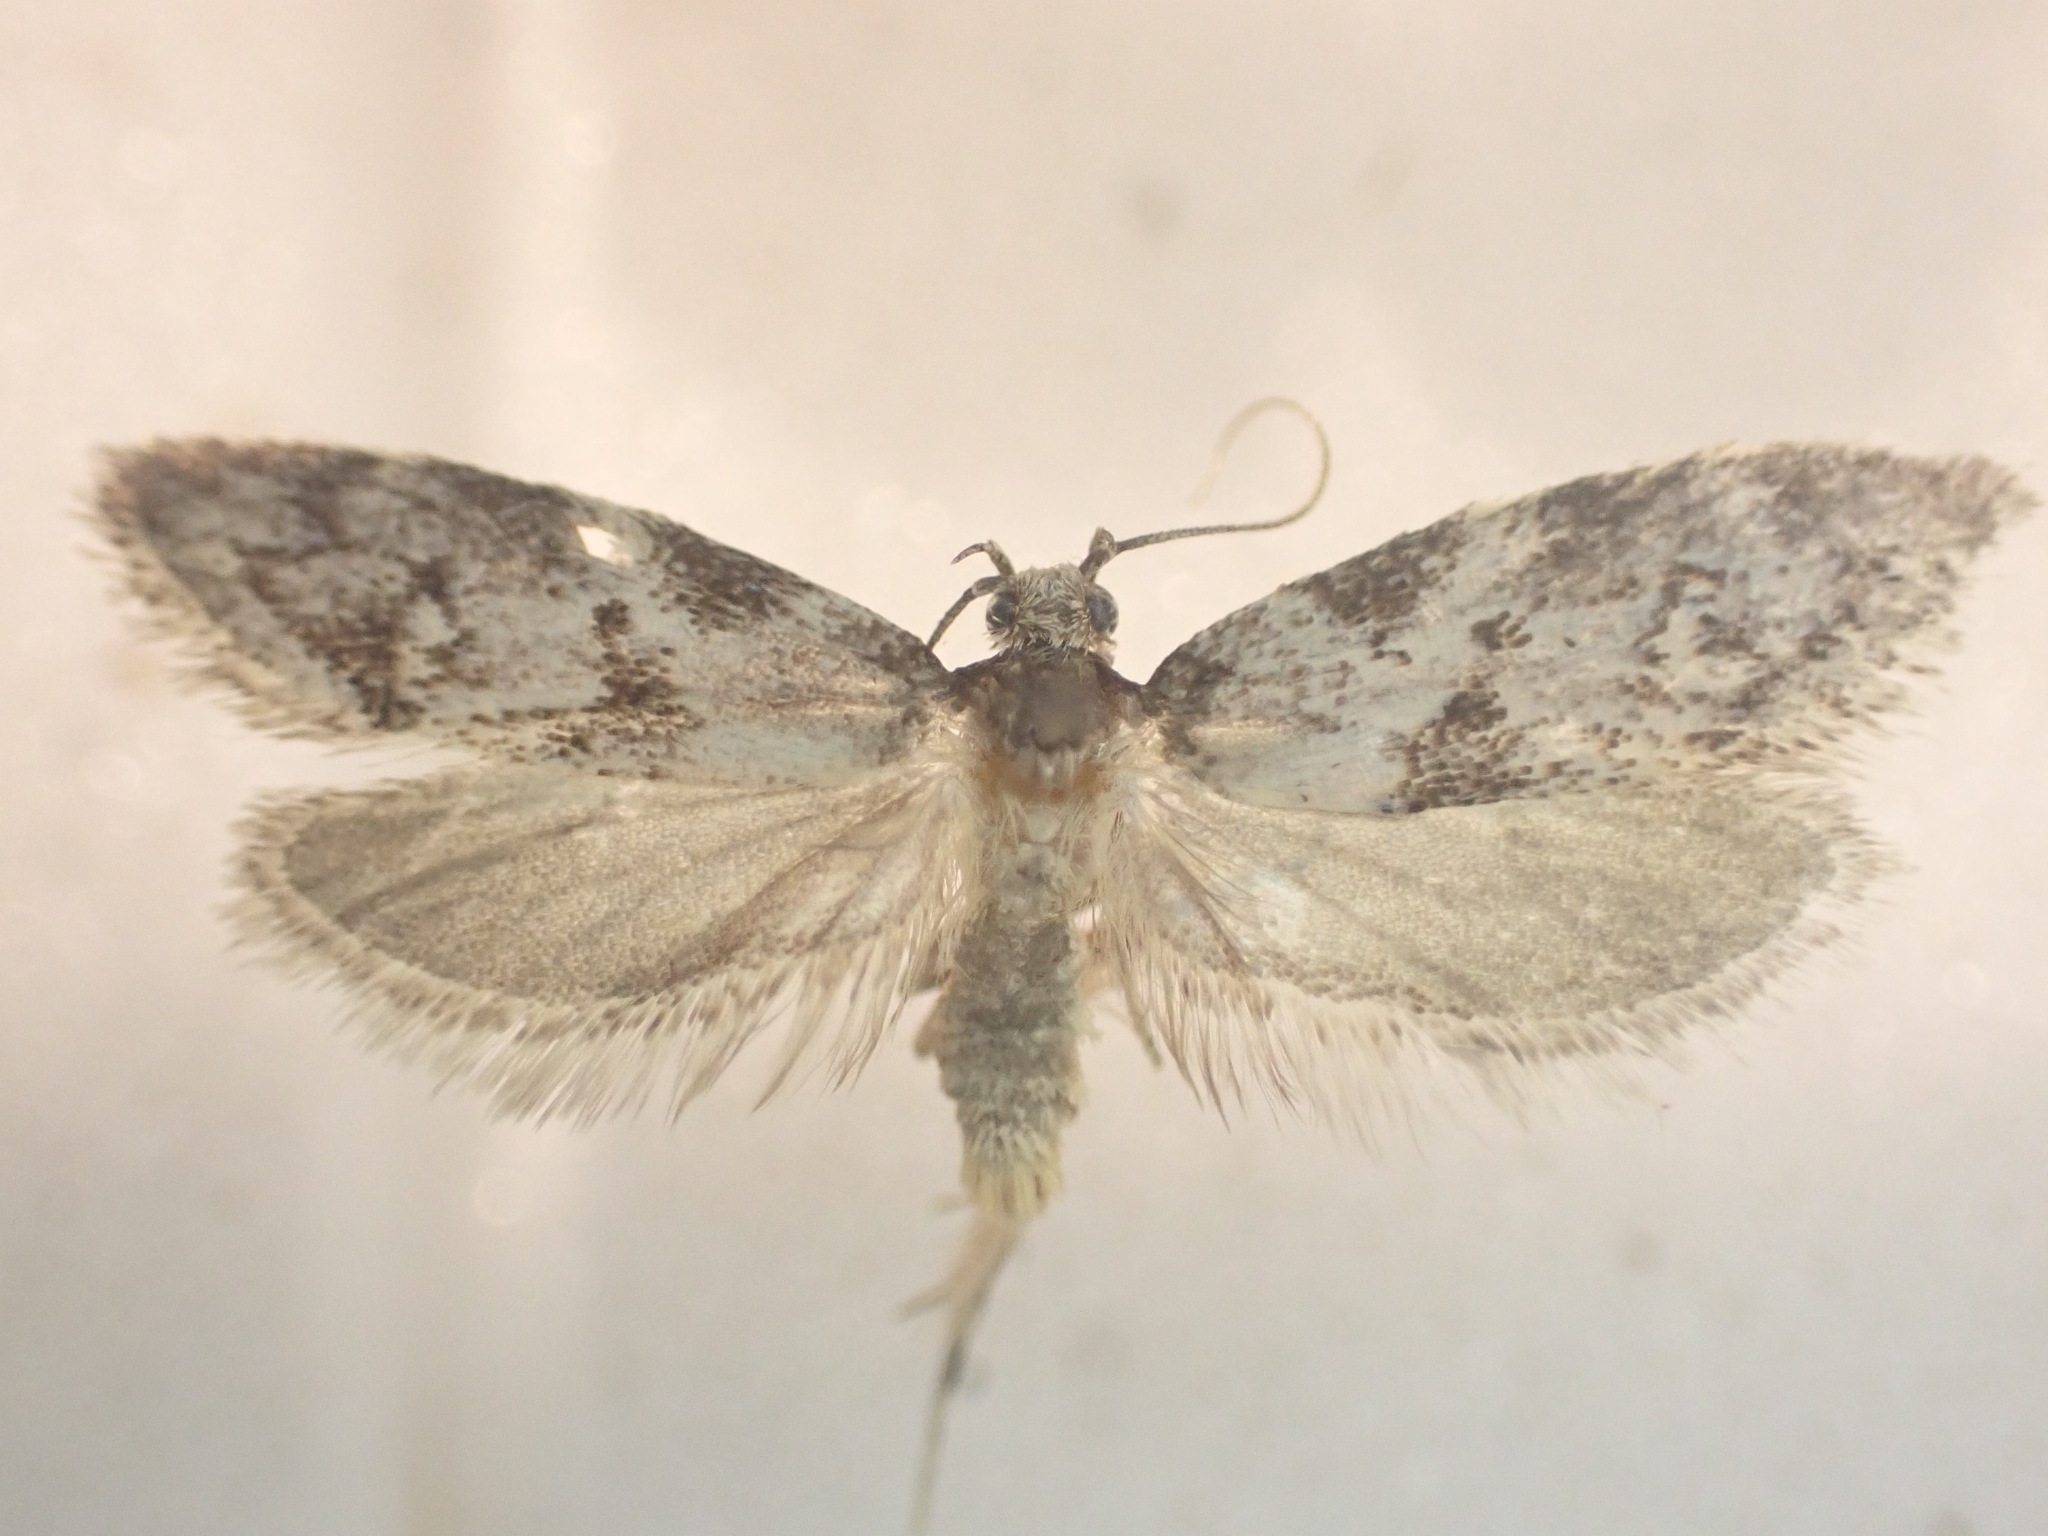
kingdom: Animalia
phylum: Arthropoda
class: Insecta
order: Lepidoptera
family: Oecophoridae
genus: Trachypepla
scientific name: Trachypepla photinella
